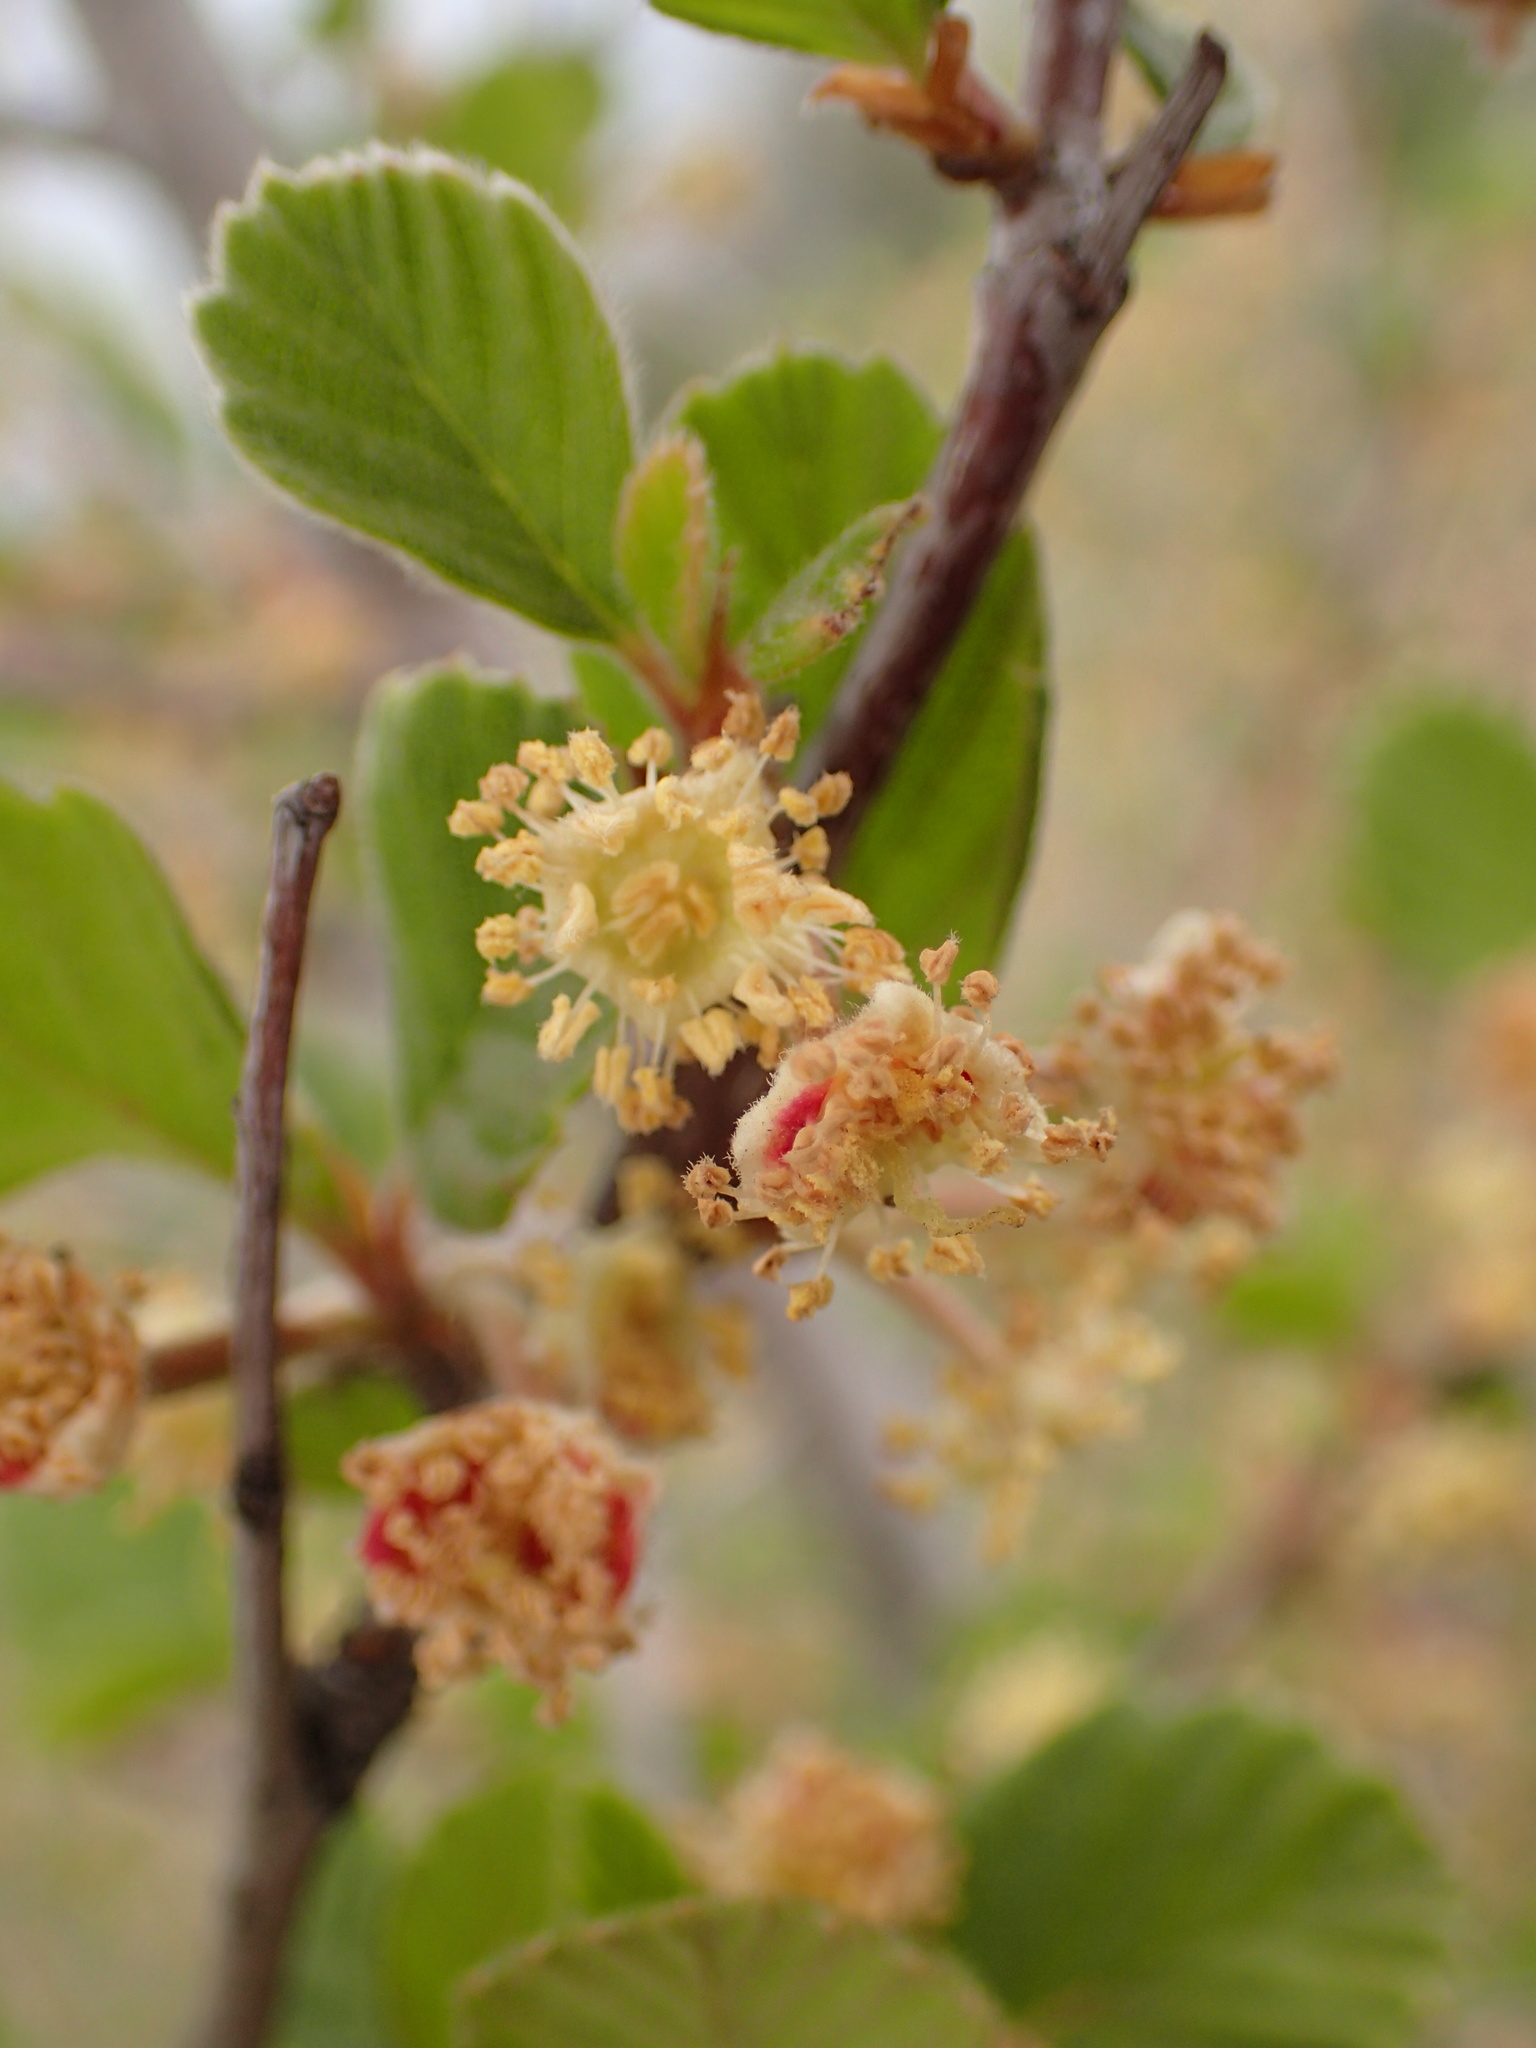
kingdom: Plantae
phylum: Tracheophyta
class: Magnoliopsida
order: Rosales
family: Rosaceae
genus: Cercocarpus
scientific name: Cercocarpus betuloides
